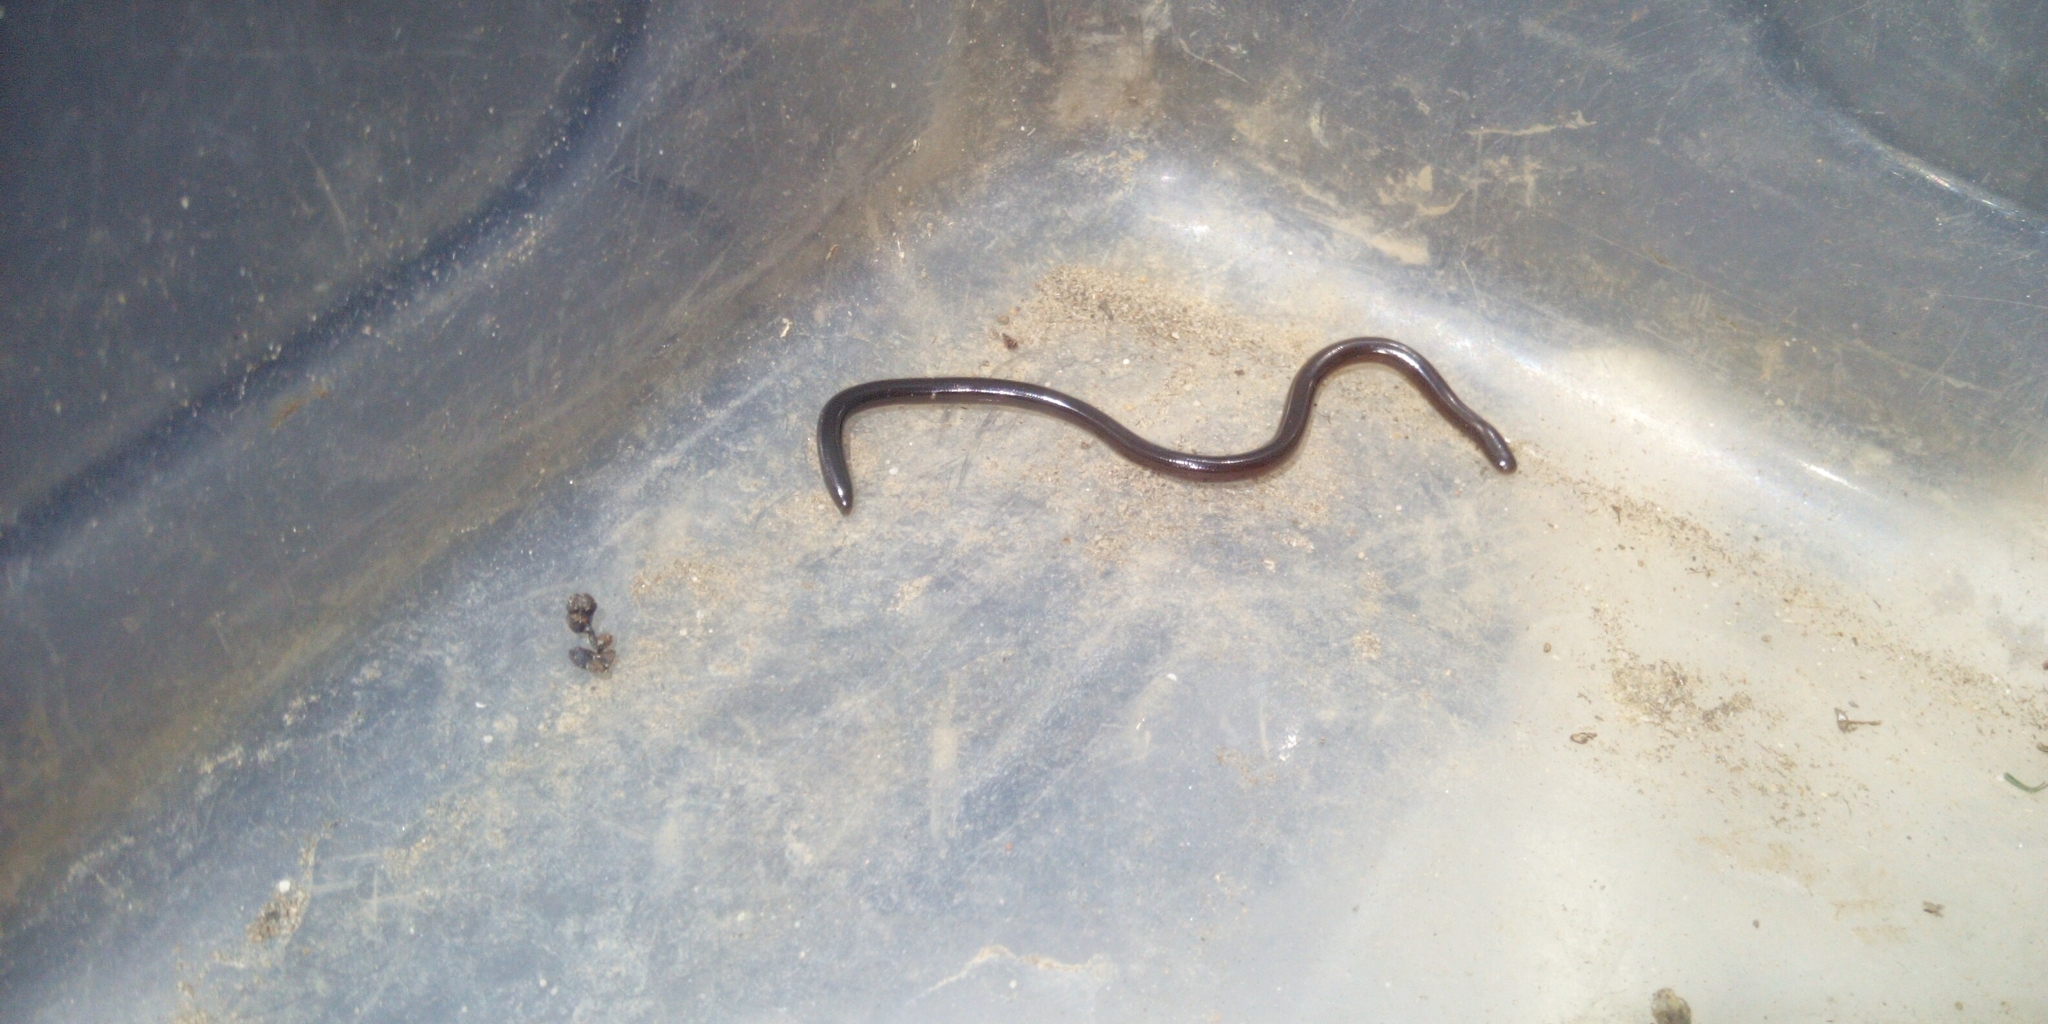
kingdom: Animalia
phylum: Chordata
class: Squamata
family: Typhlopidae
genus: Indotyphlops
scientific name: Indotyphlops braminus
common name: Brahminy blindsnake
